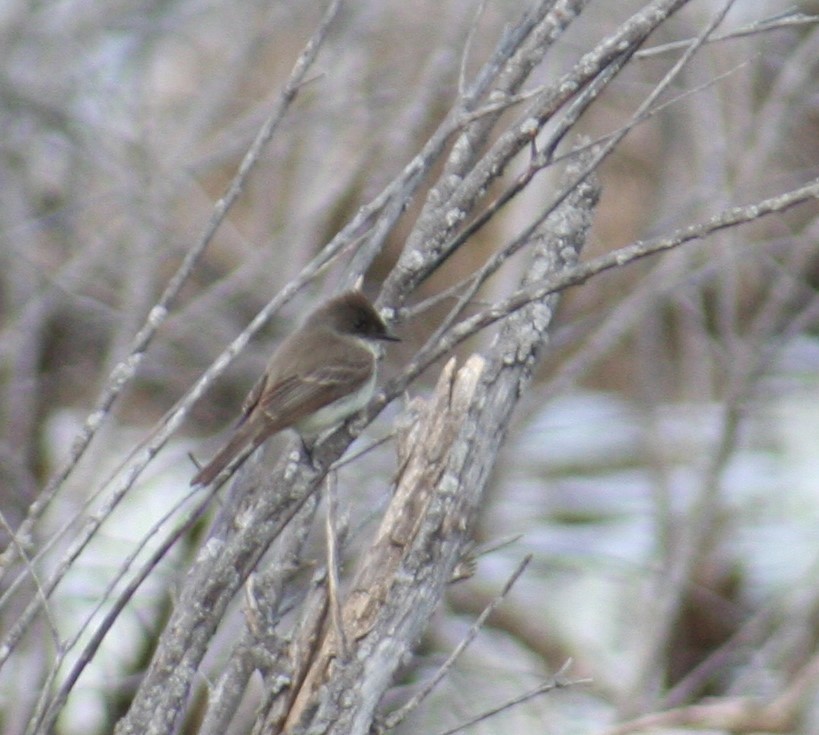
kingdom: Animalia
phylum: Chordata
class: Aves
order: Passeriformes
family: Tyrannidae
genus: Sayornis
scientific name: Sayornis phoebe
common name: Eastern phoebe
